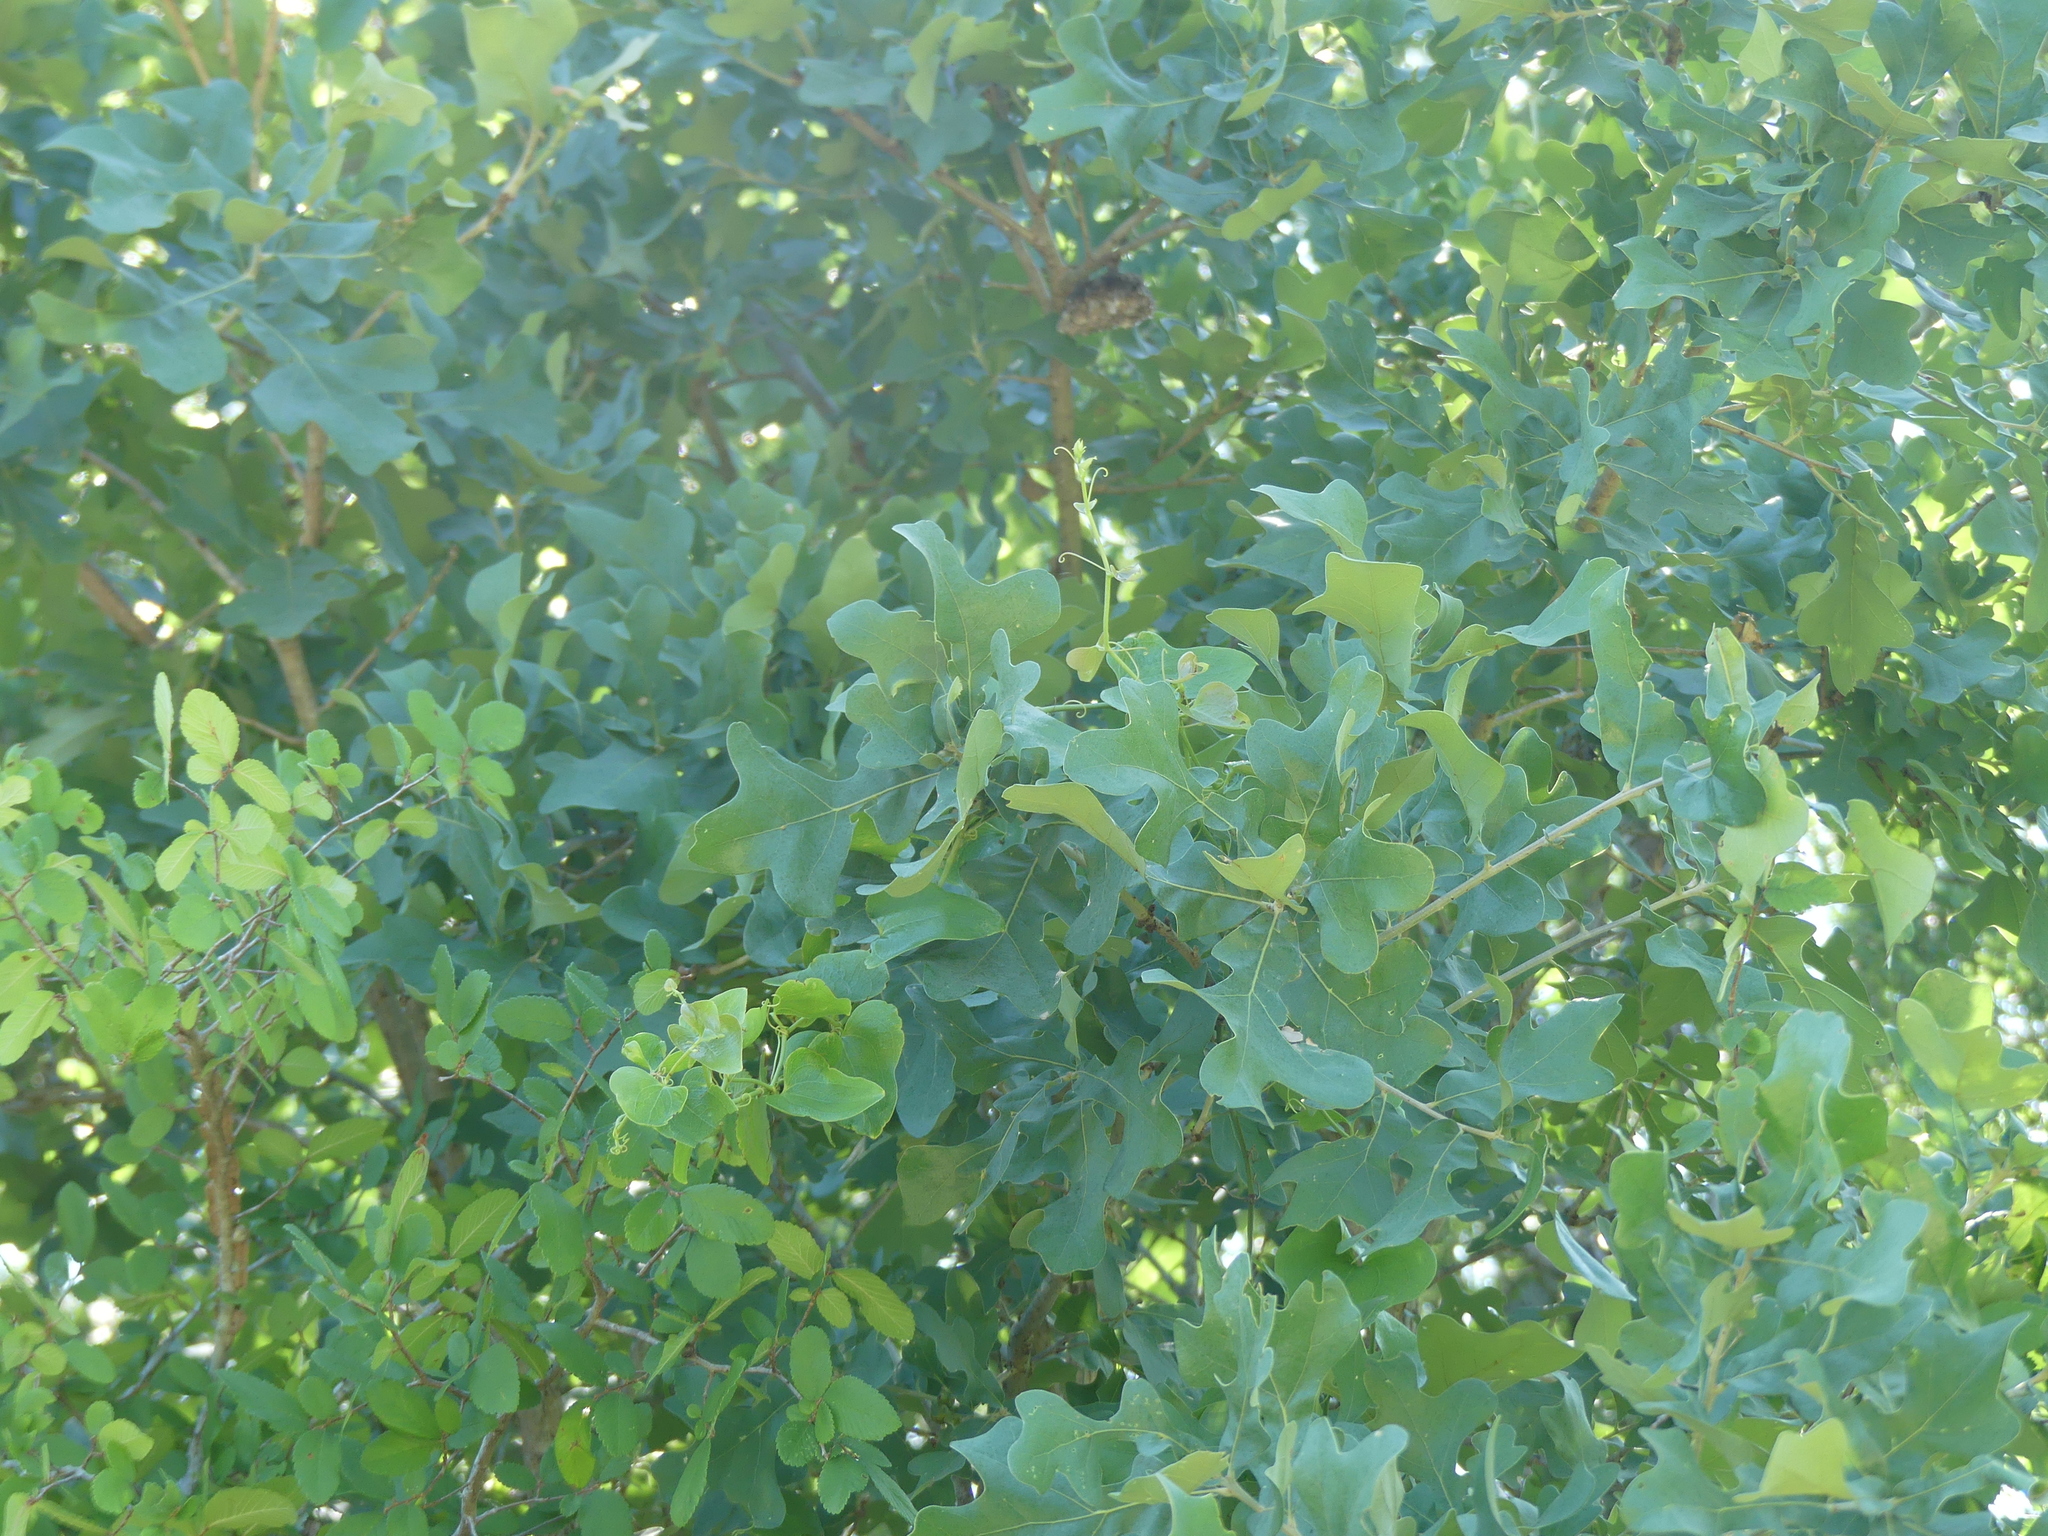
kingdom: Plantae
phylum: Tracheophyta
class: Magnoliopsida
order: Fagales
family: Fagaceae
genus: Quercus
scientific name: Quercus stellata
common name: Post oak
